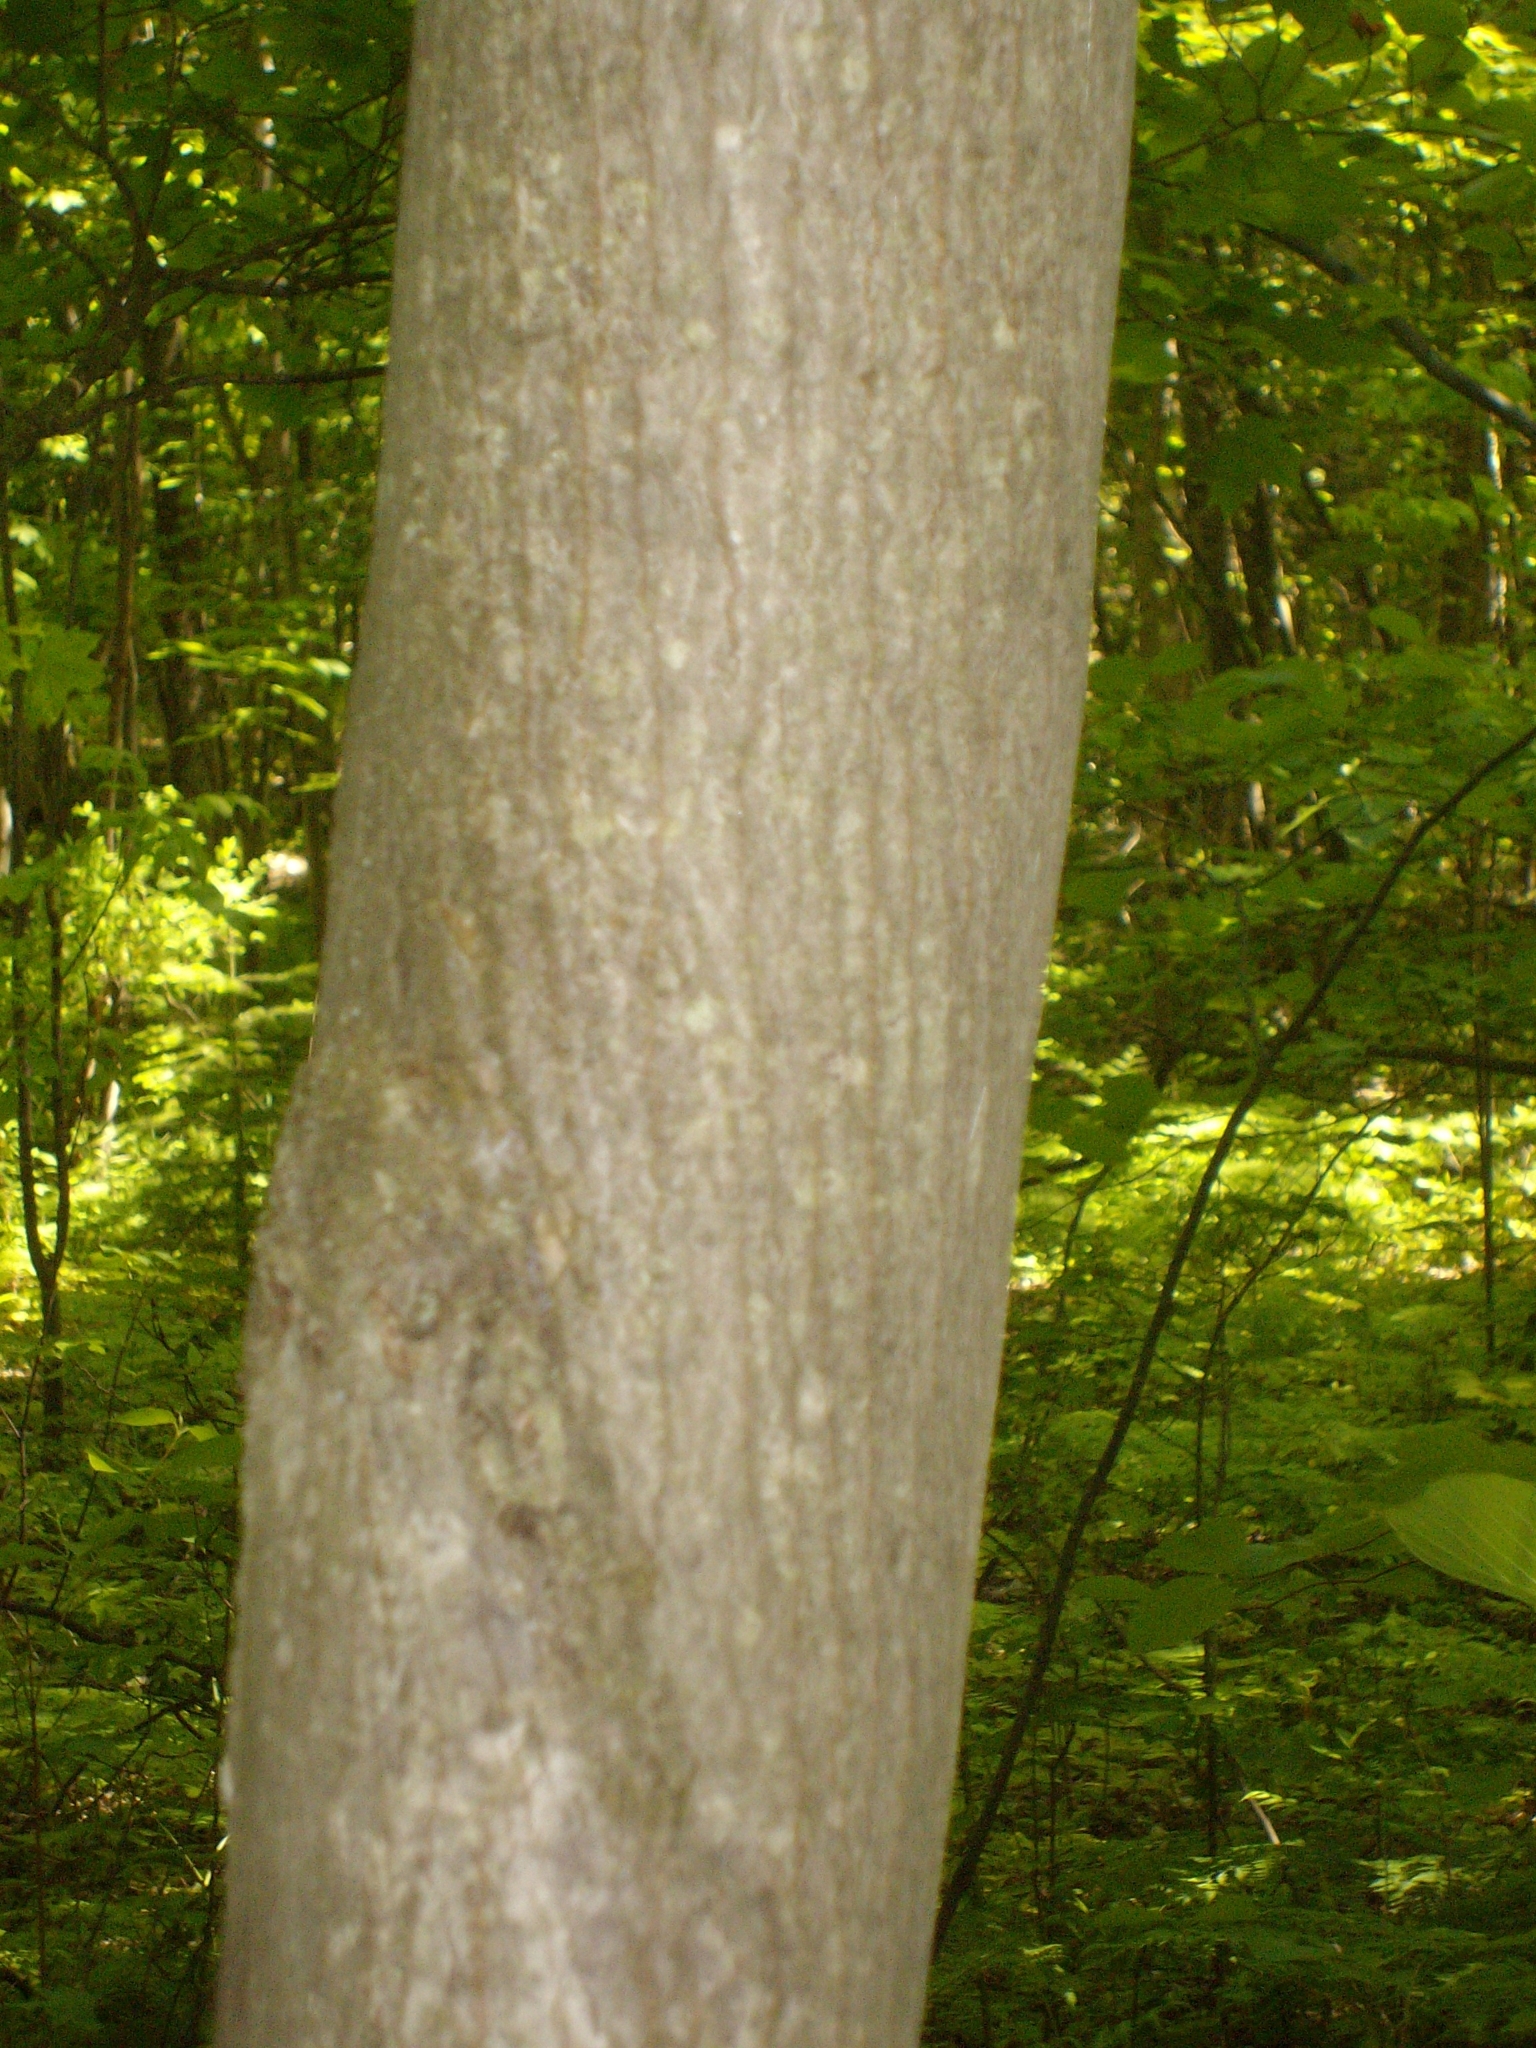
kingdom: Plantae
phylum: Tracheophyta
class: Magnoliopsida
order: Sapindales
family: Sapindaceae
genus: Acer
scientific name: Acer pensylvanicum
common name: Moosewood
